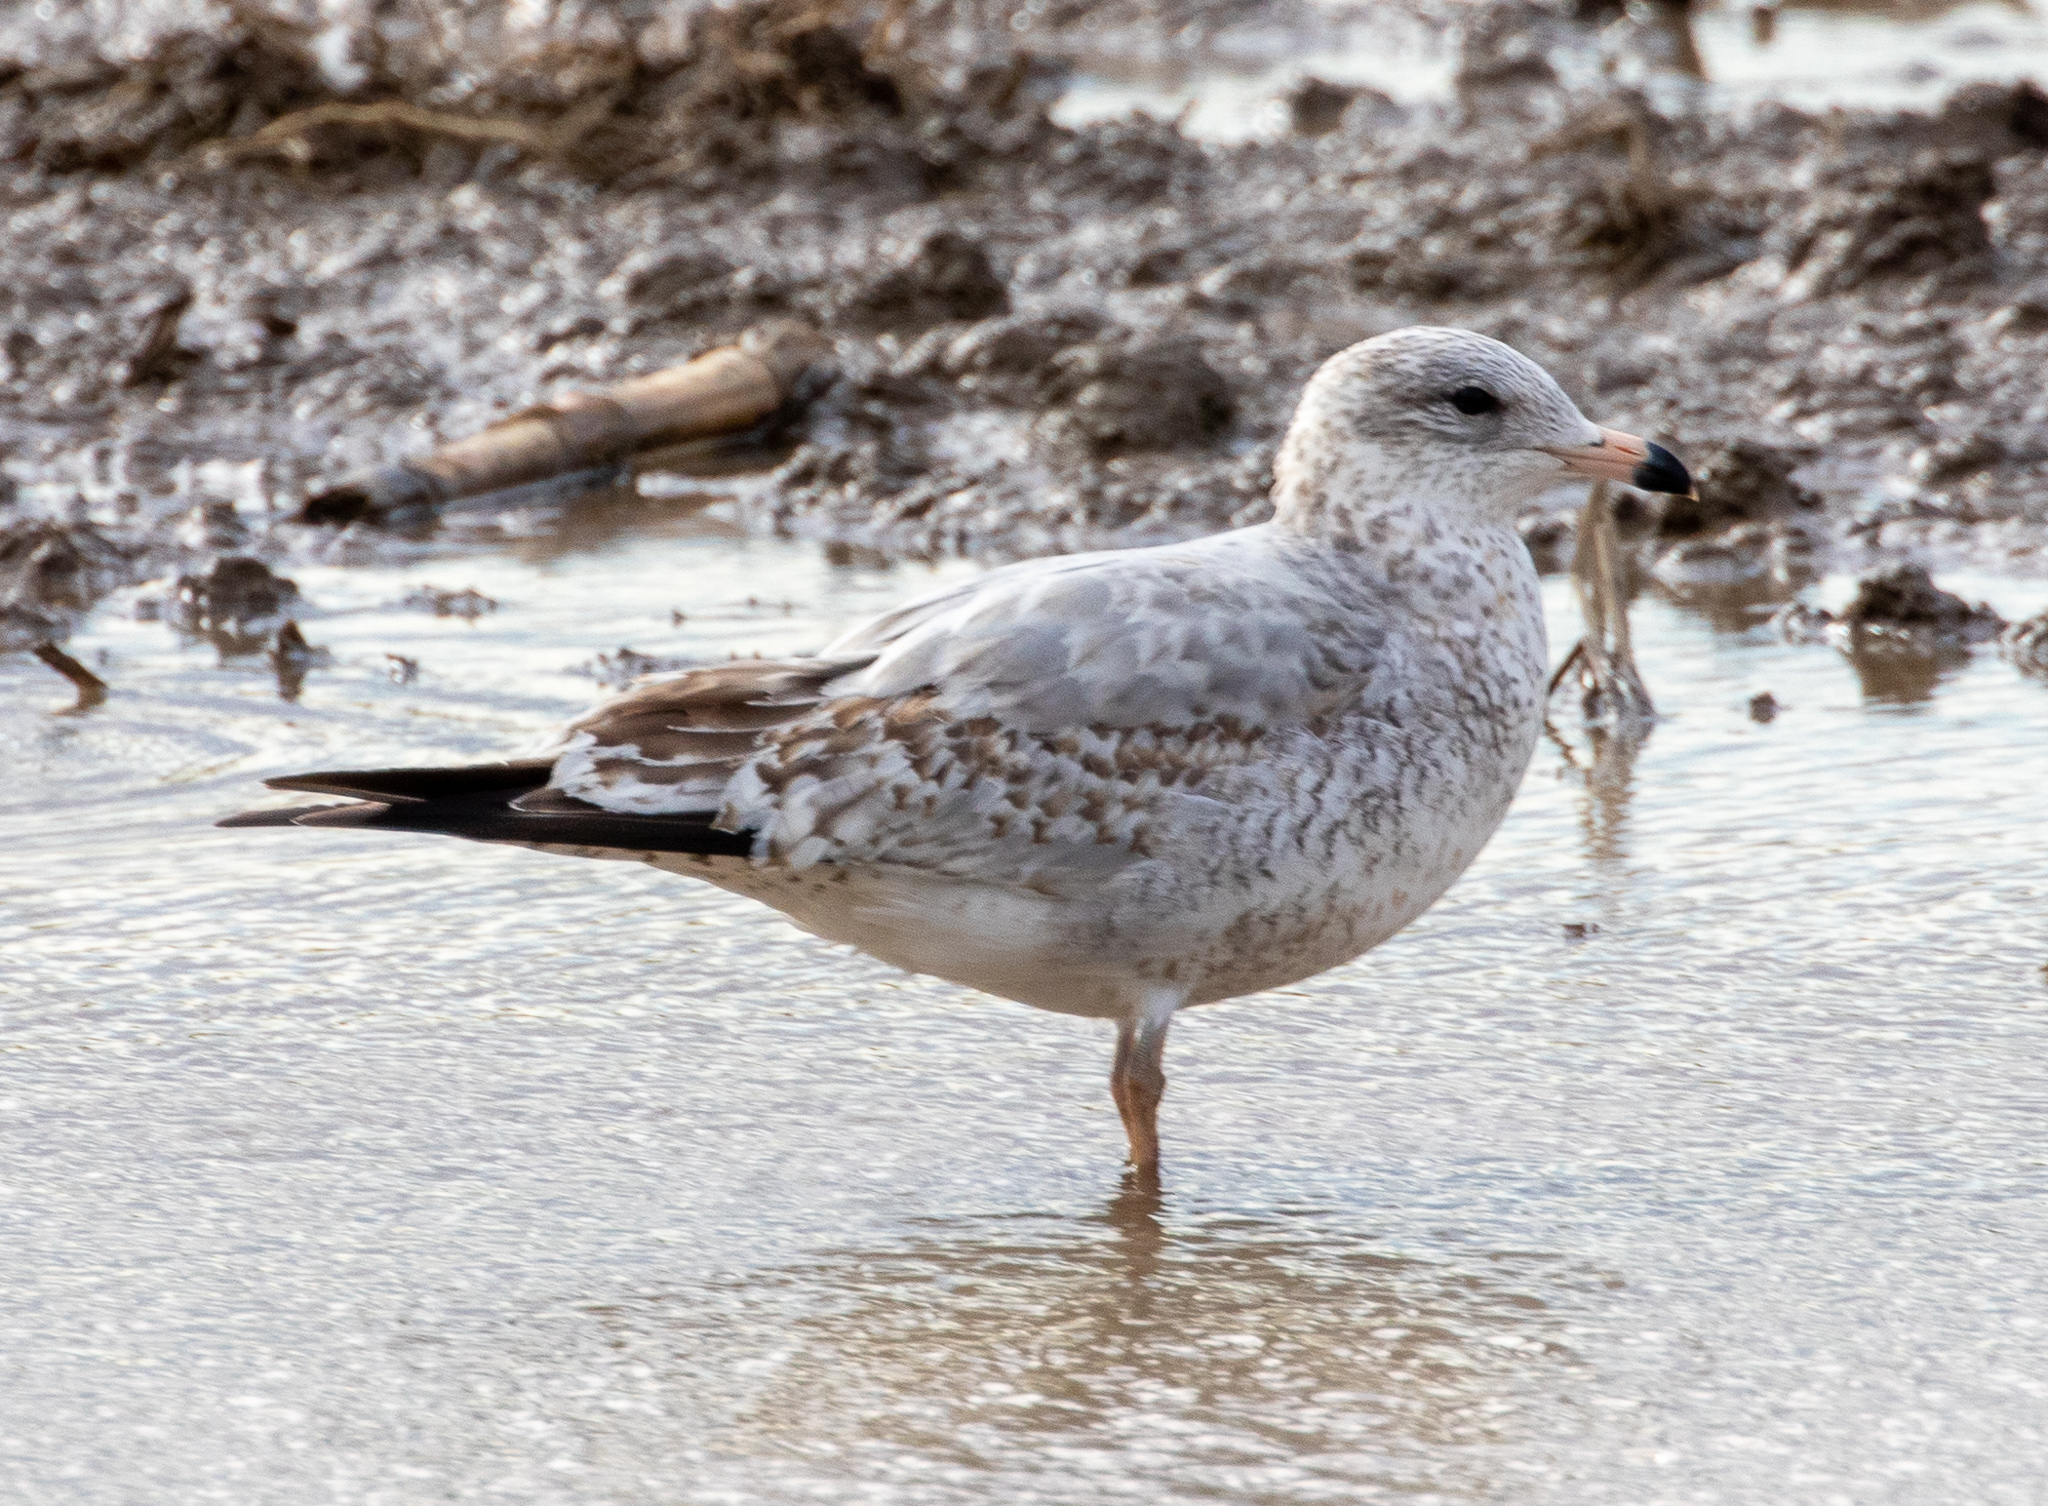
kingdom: Animalia
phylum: Chordata
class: Aves
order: Charadriiformes
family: Laridae
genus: Larus
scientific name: Larus delawarensis
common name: Ring-billed gull
